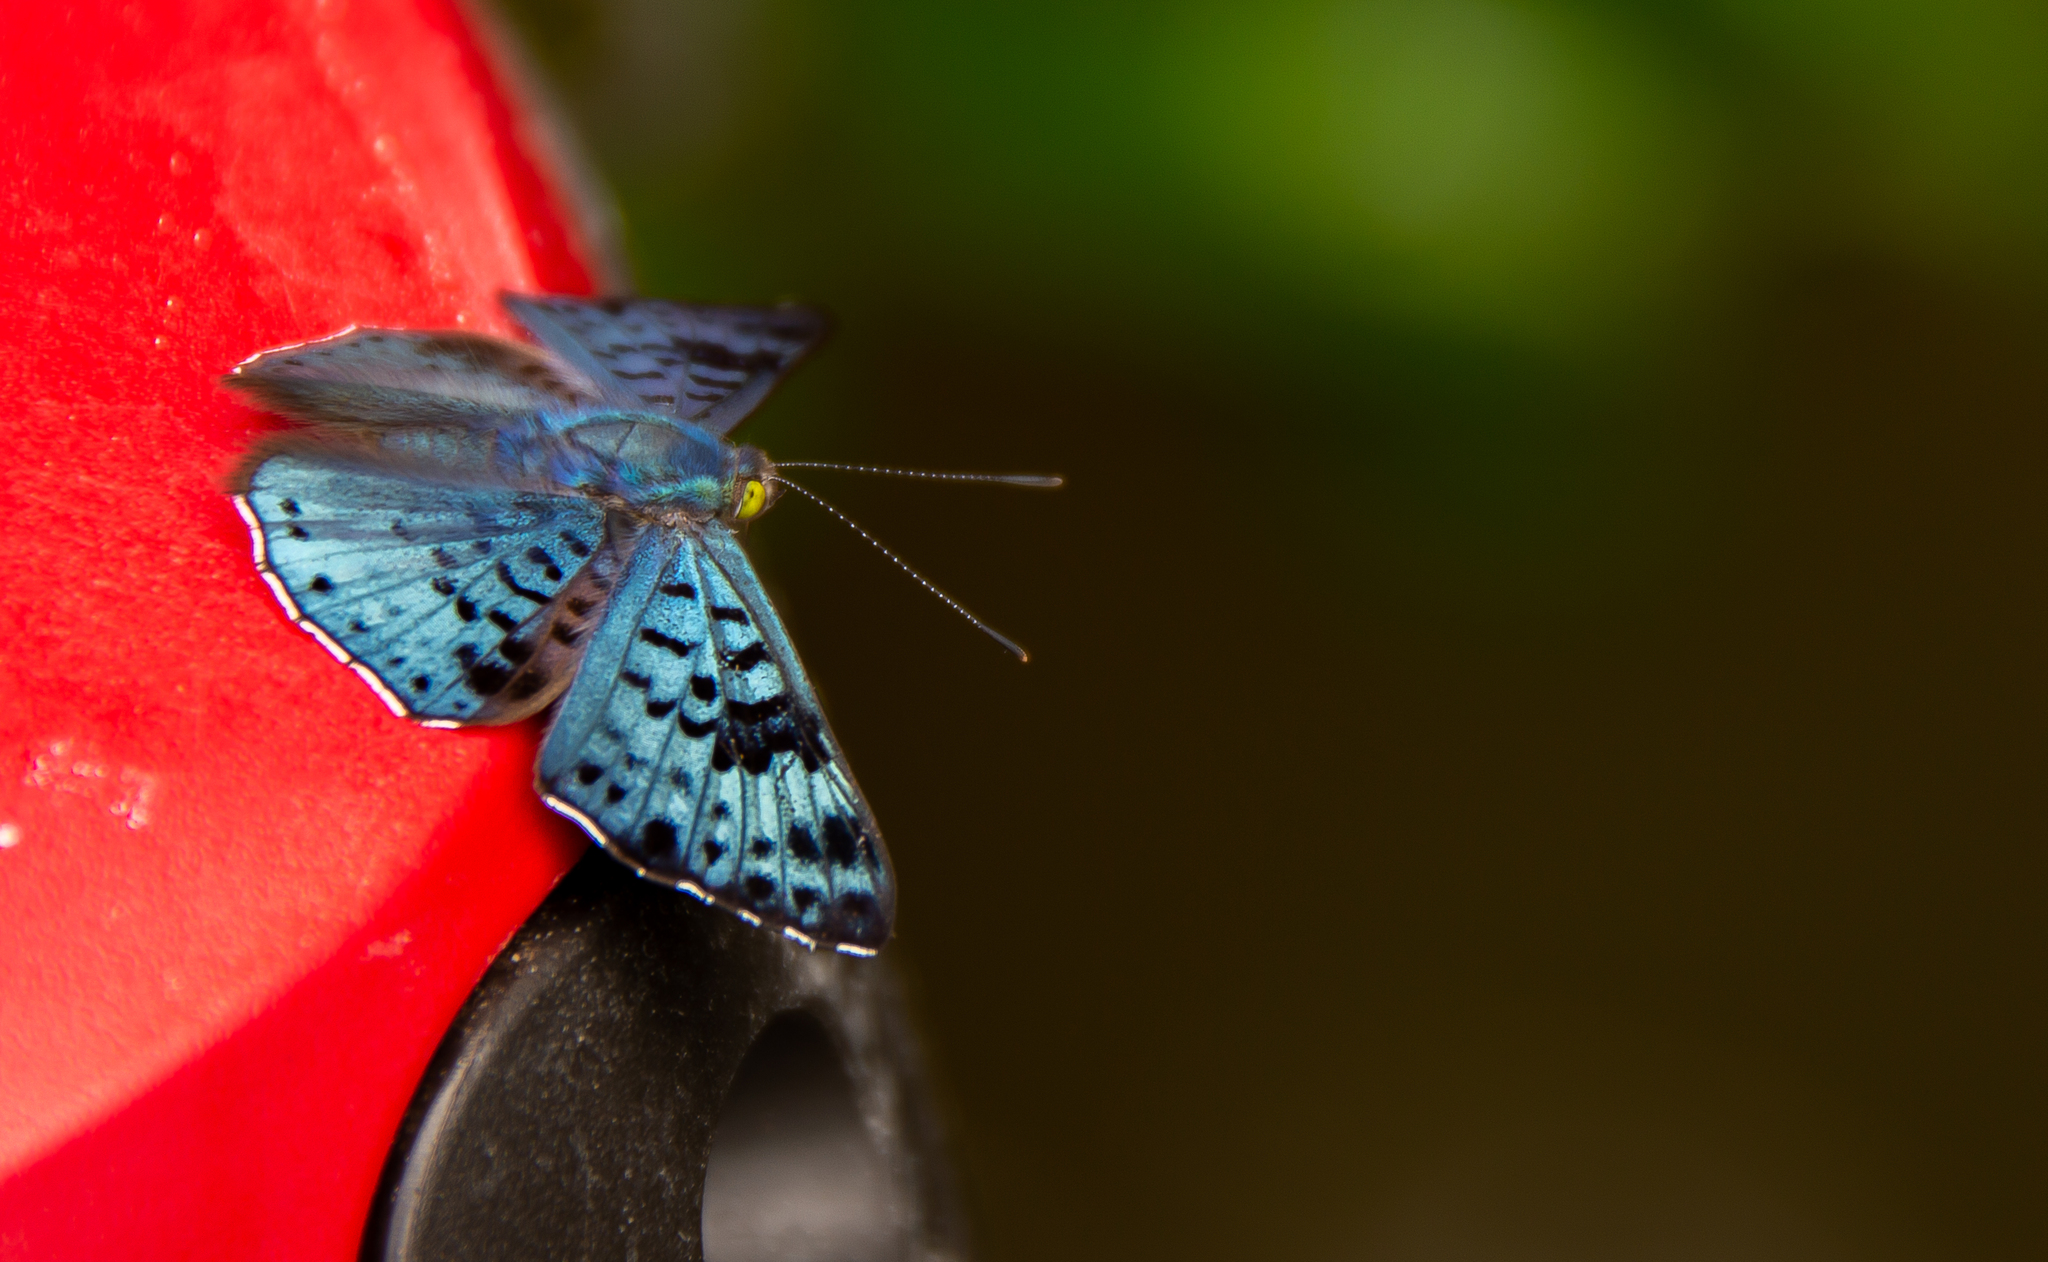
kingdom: Animalia
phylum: Arthropoda
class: Insecta
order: Lepidoptera
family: Riodinidae
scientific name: Riodinidae
